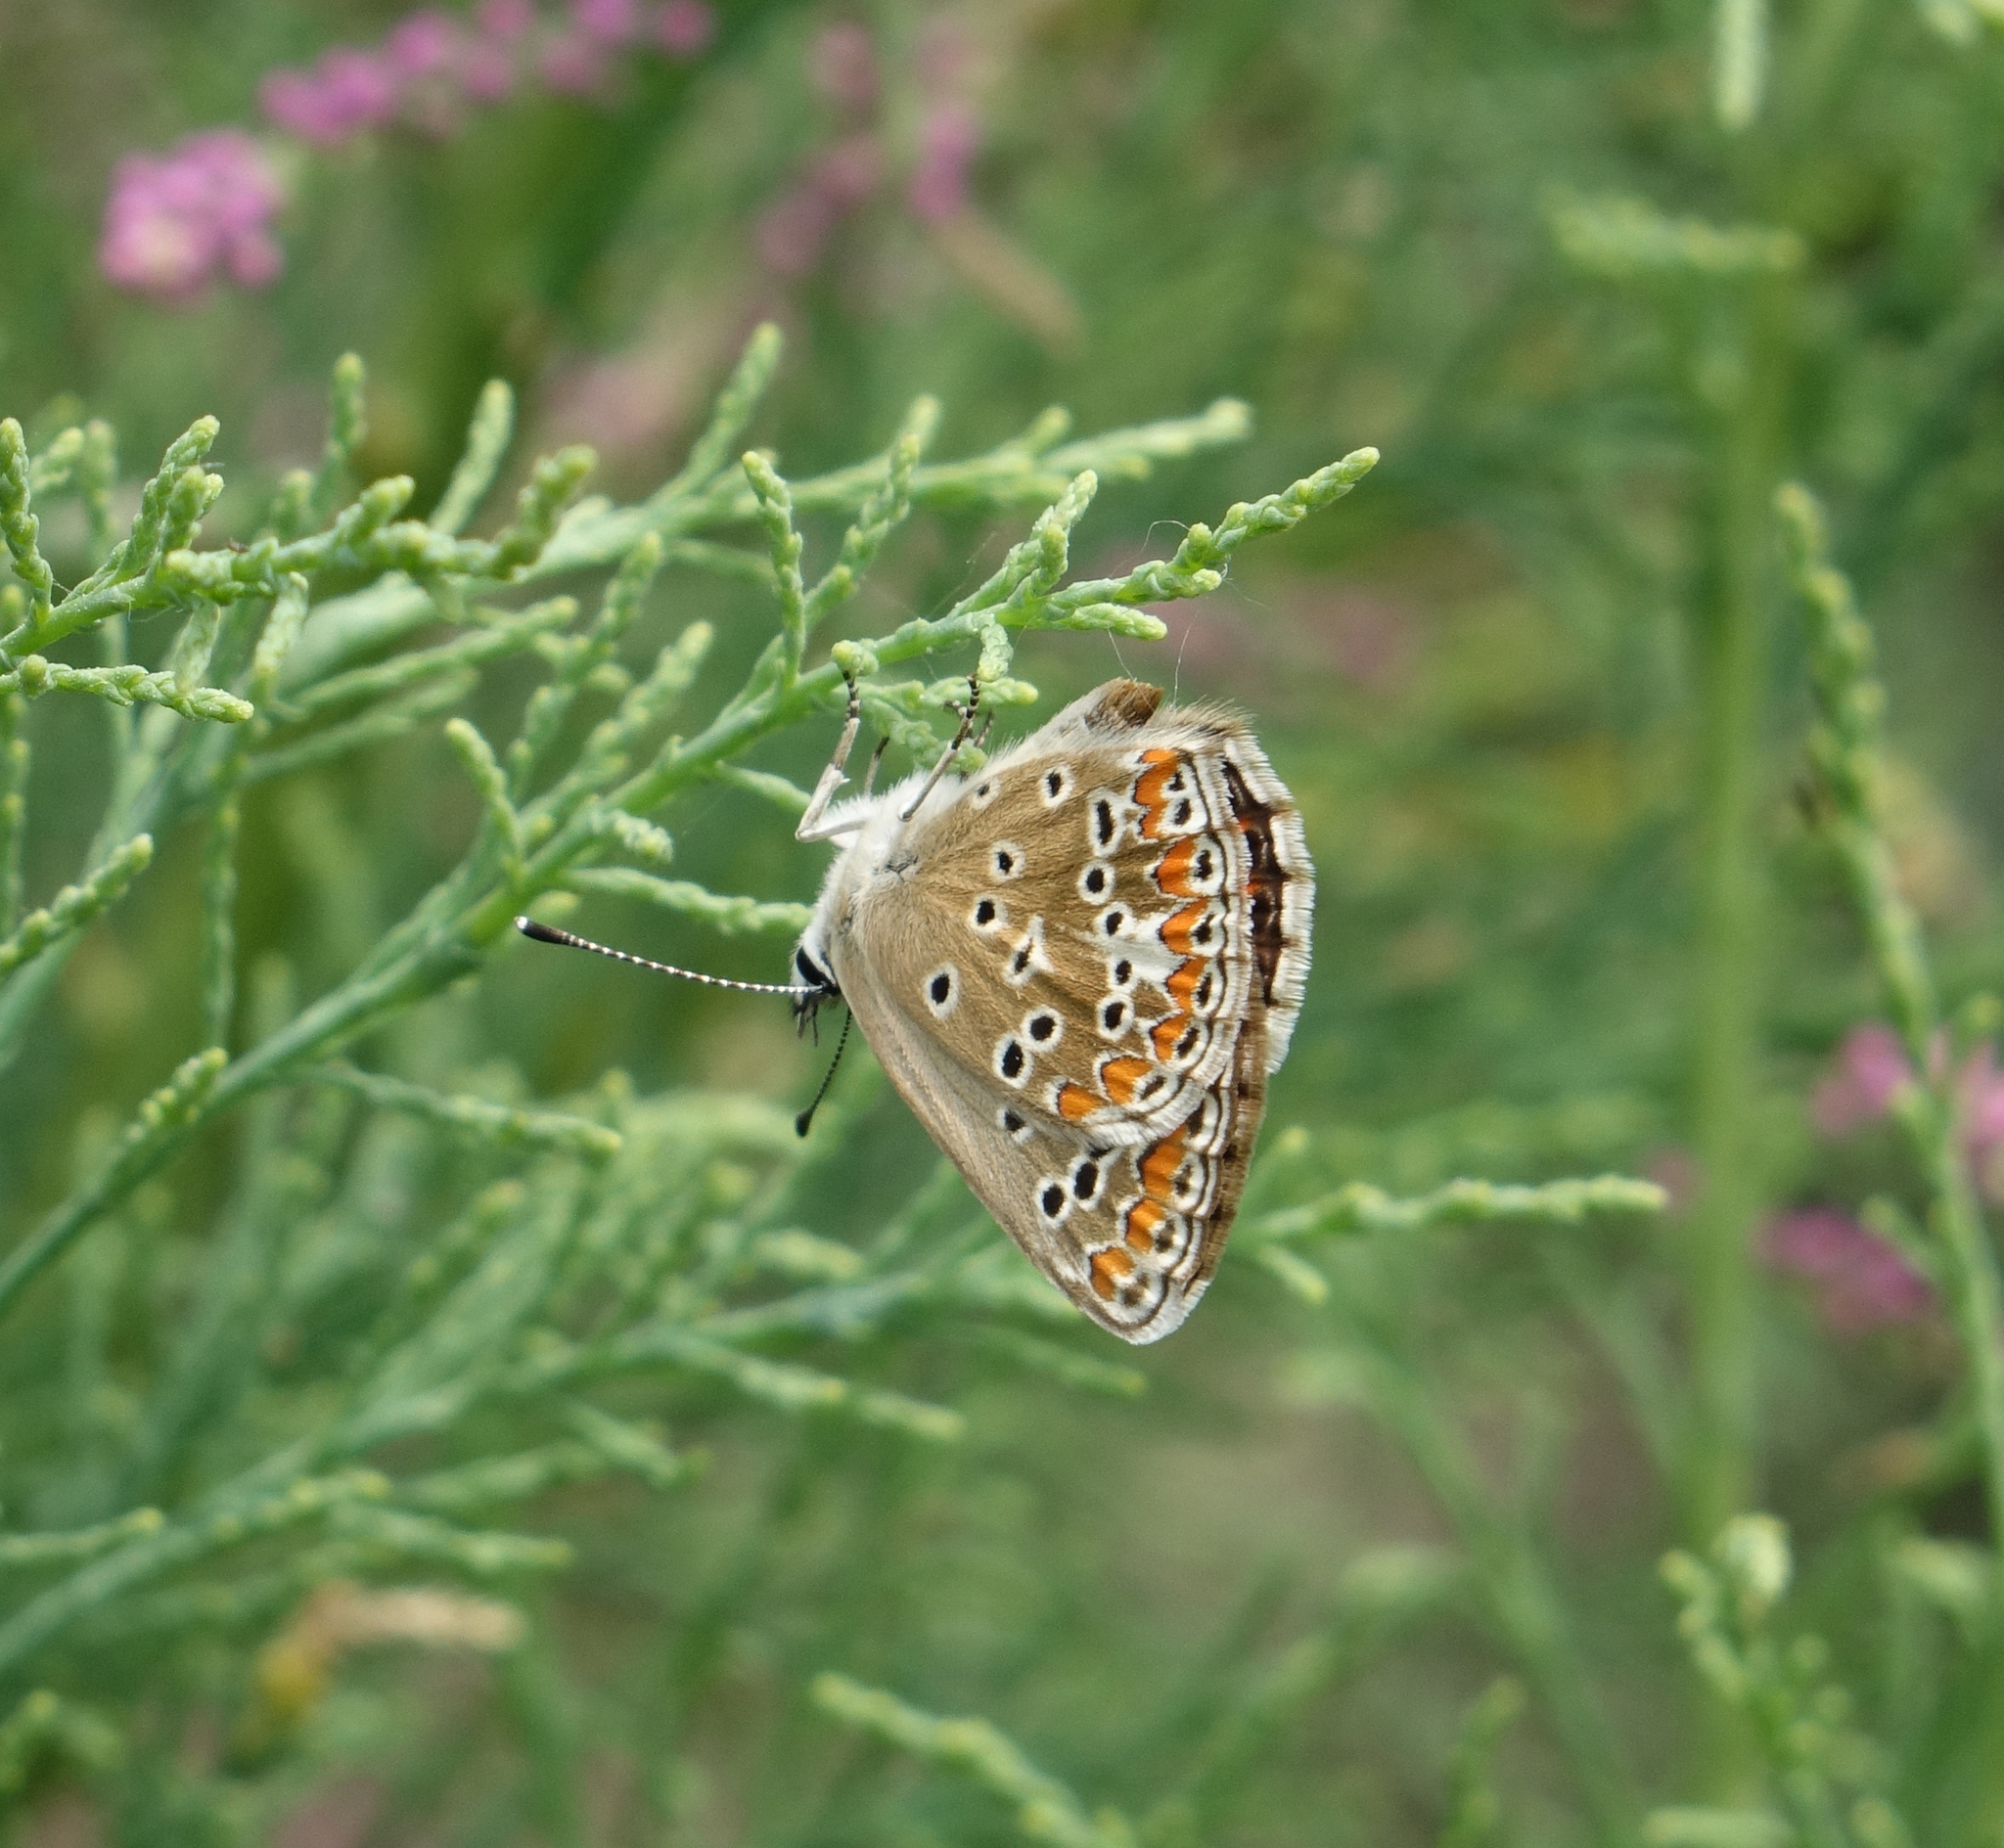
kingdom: Animalia
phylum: Arthropoda
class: Insecta
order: Lepidoptera
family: Lycaenidae
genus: Aricia
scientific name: Aricia agestis
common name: Brown argus
